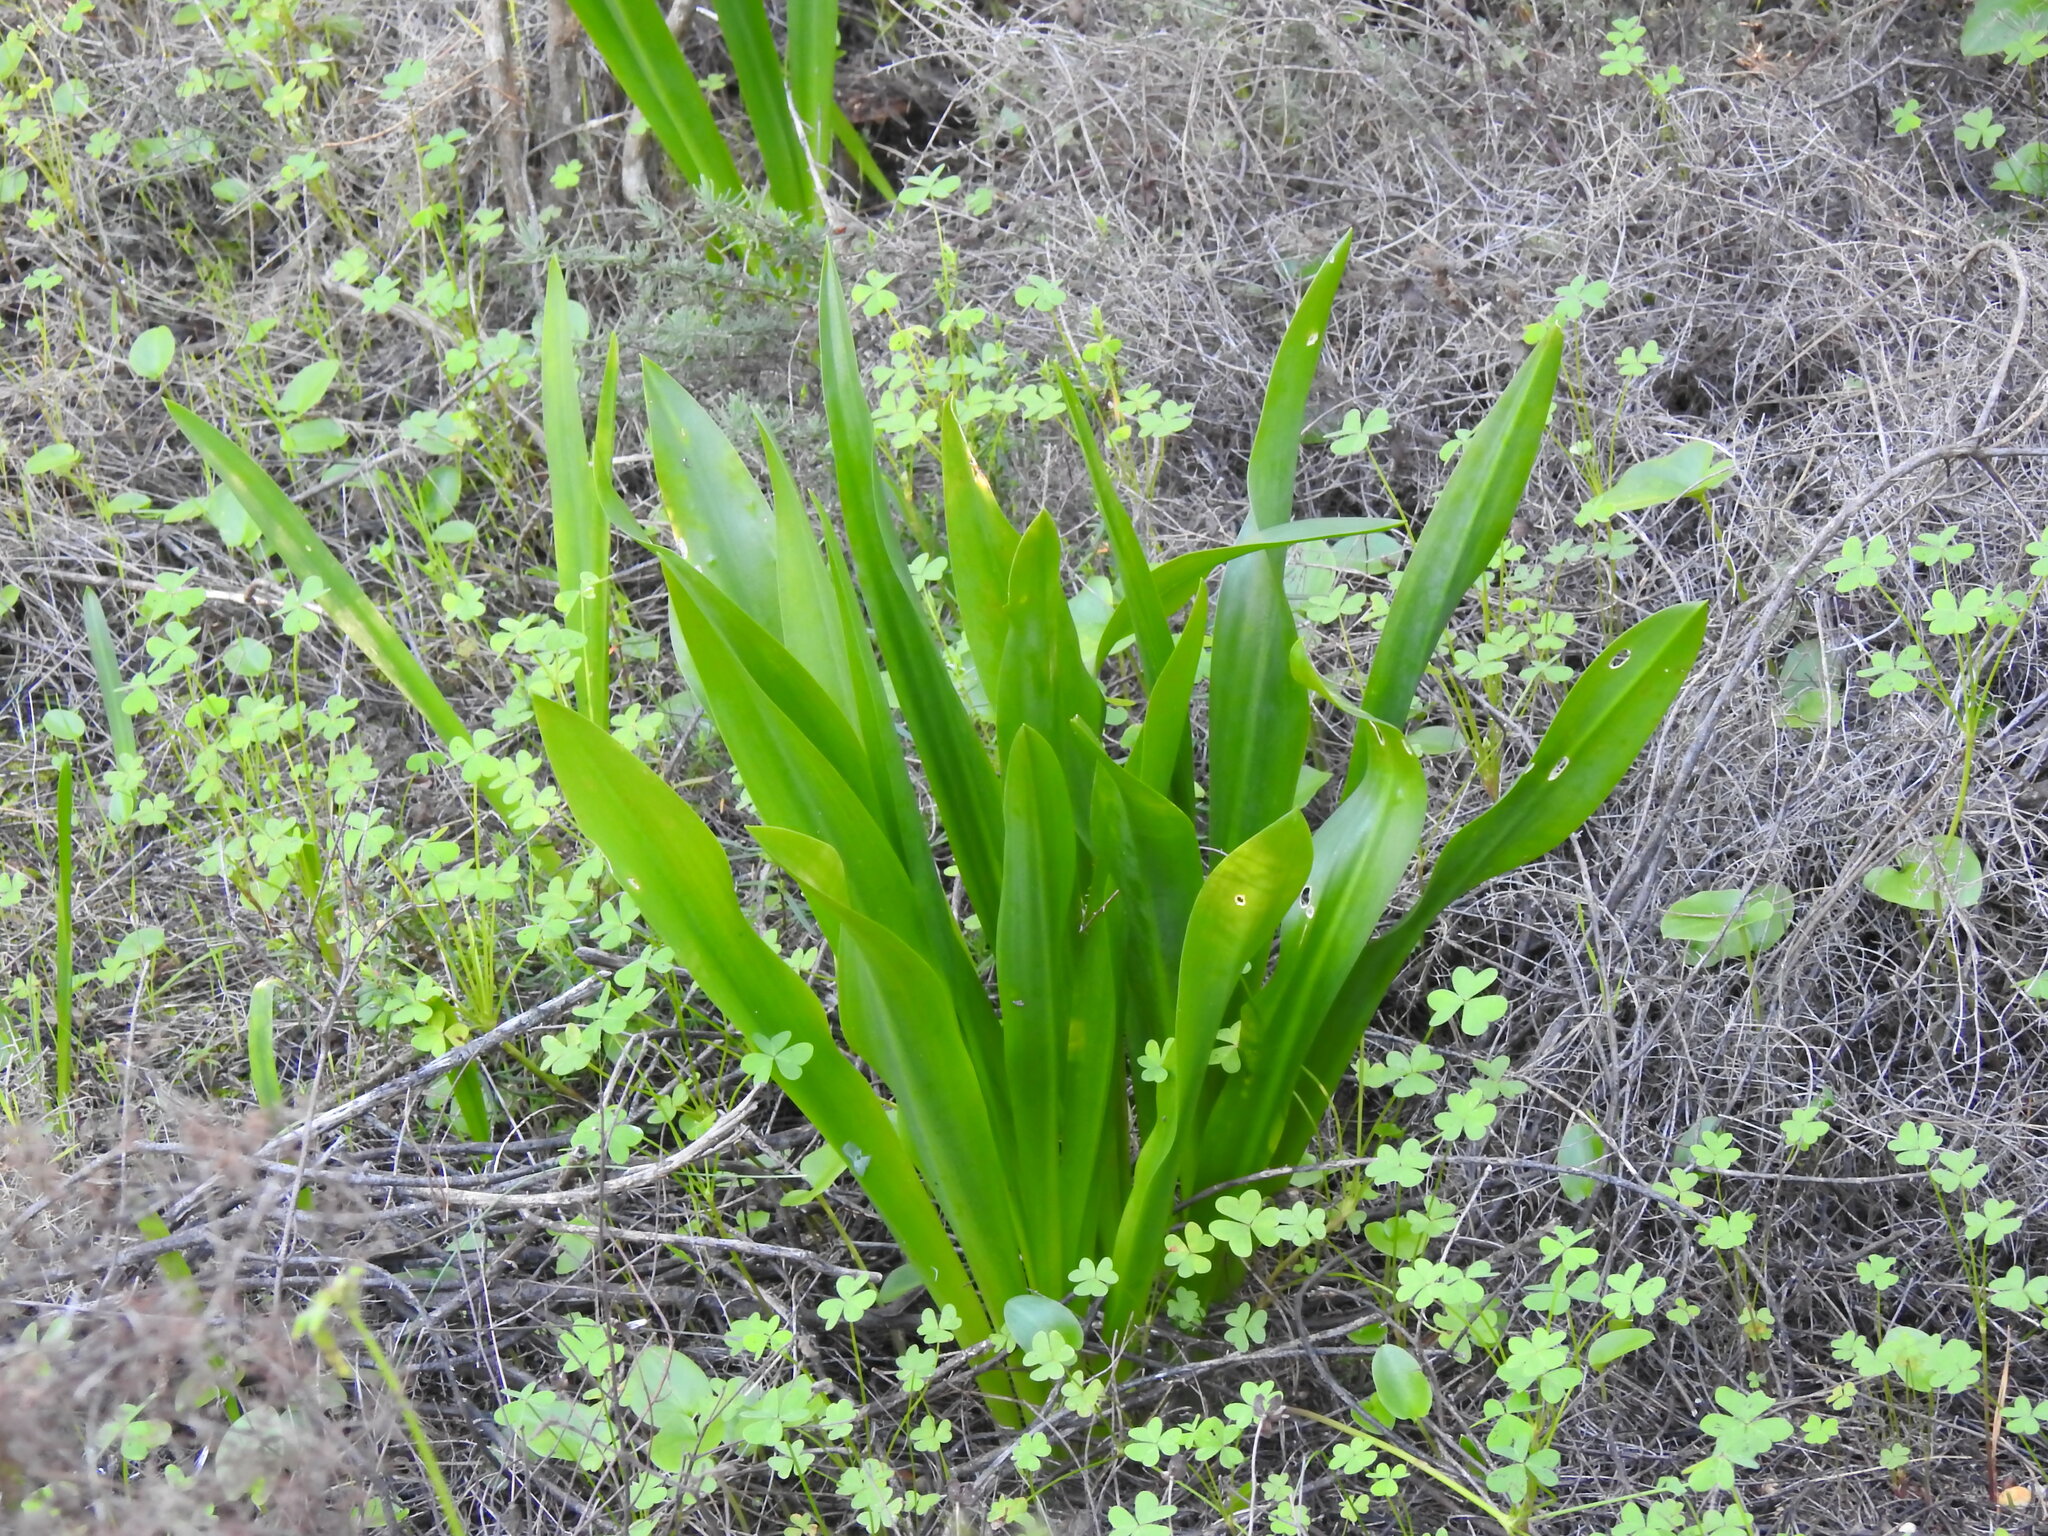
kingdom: Plantae
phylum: Tracheophyta
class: Liliopsida
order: Asparagales
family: Asparagaceae
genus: Drimia
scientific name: Drimia maritima
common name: Maritime squill
